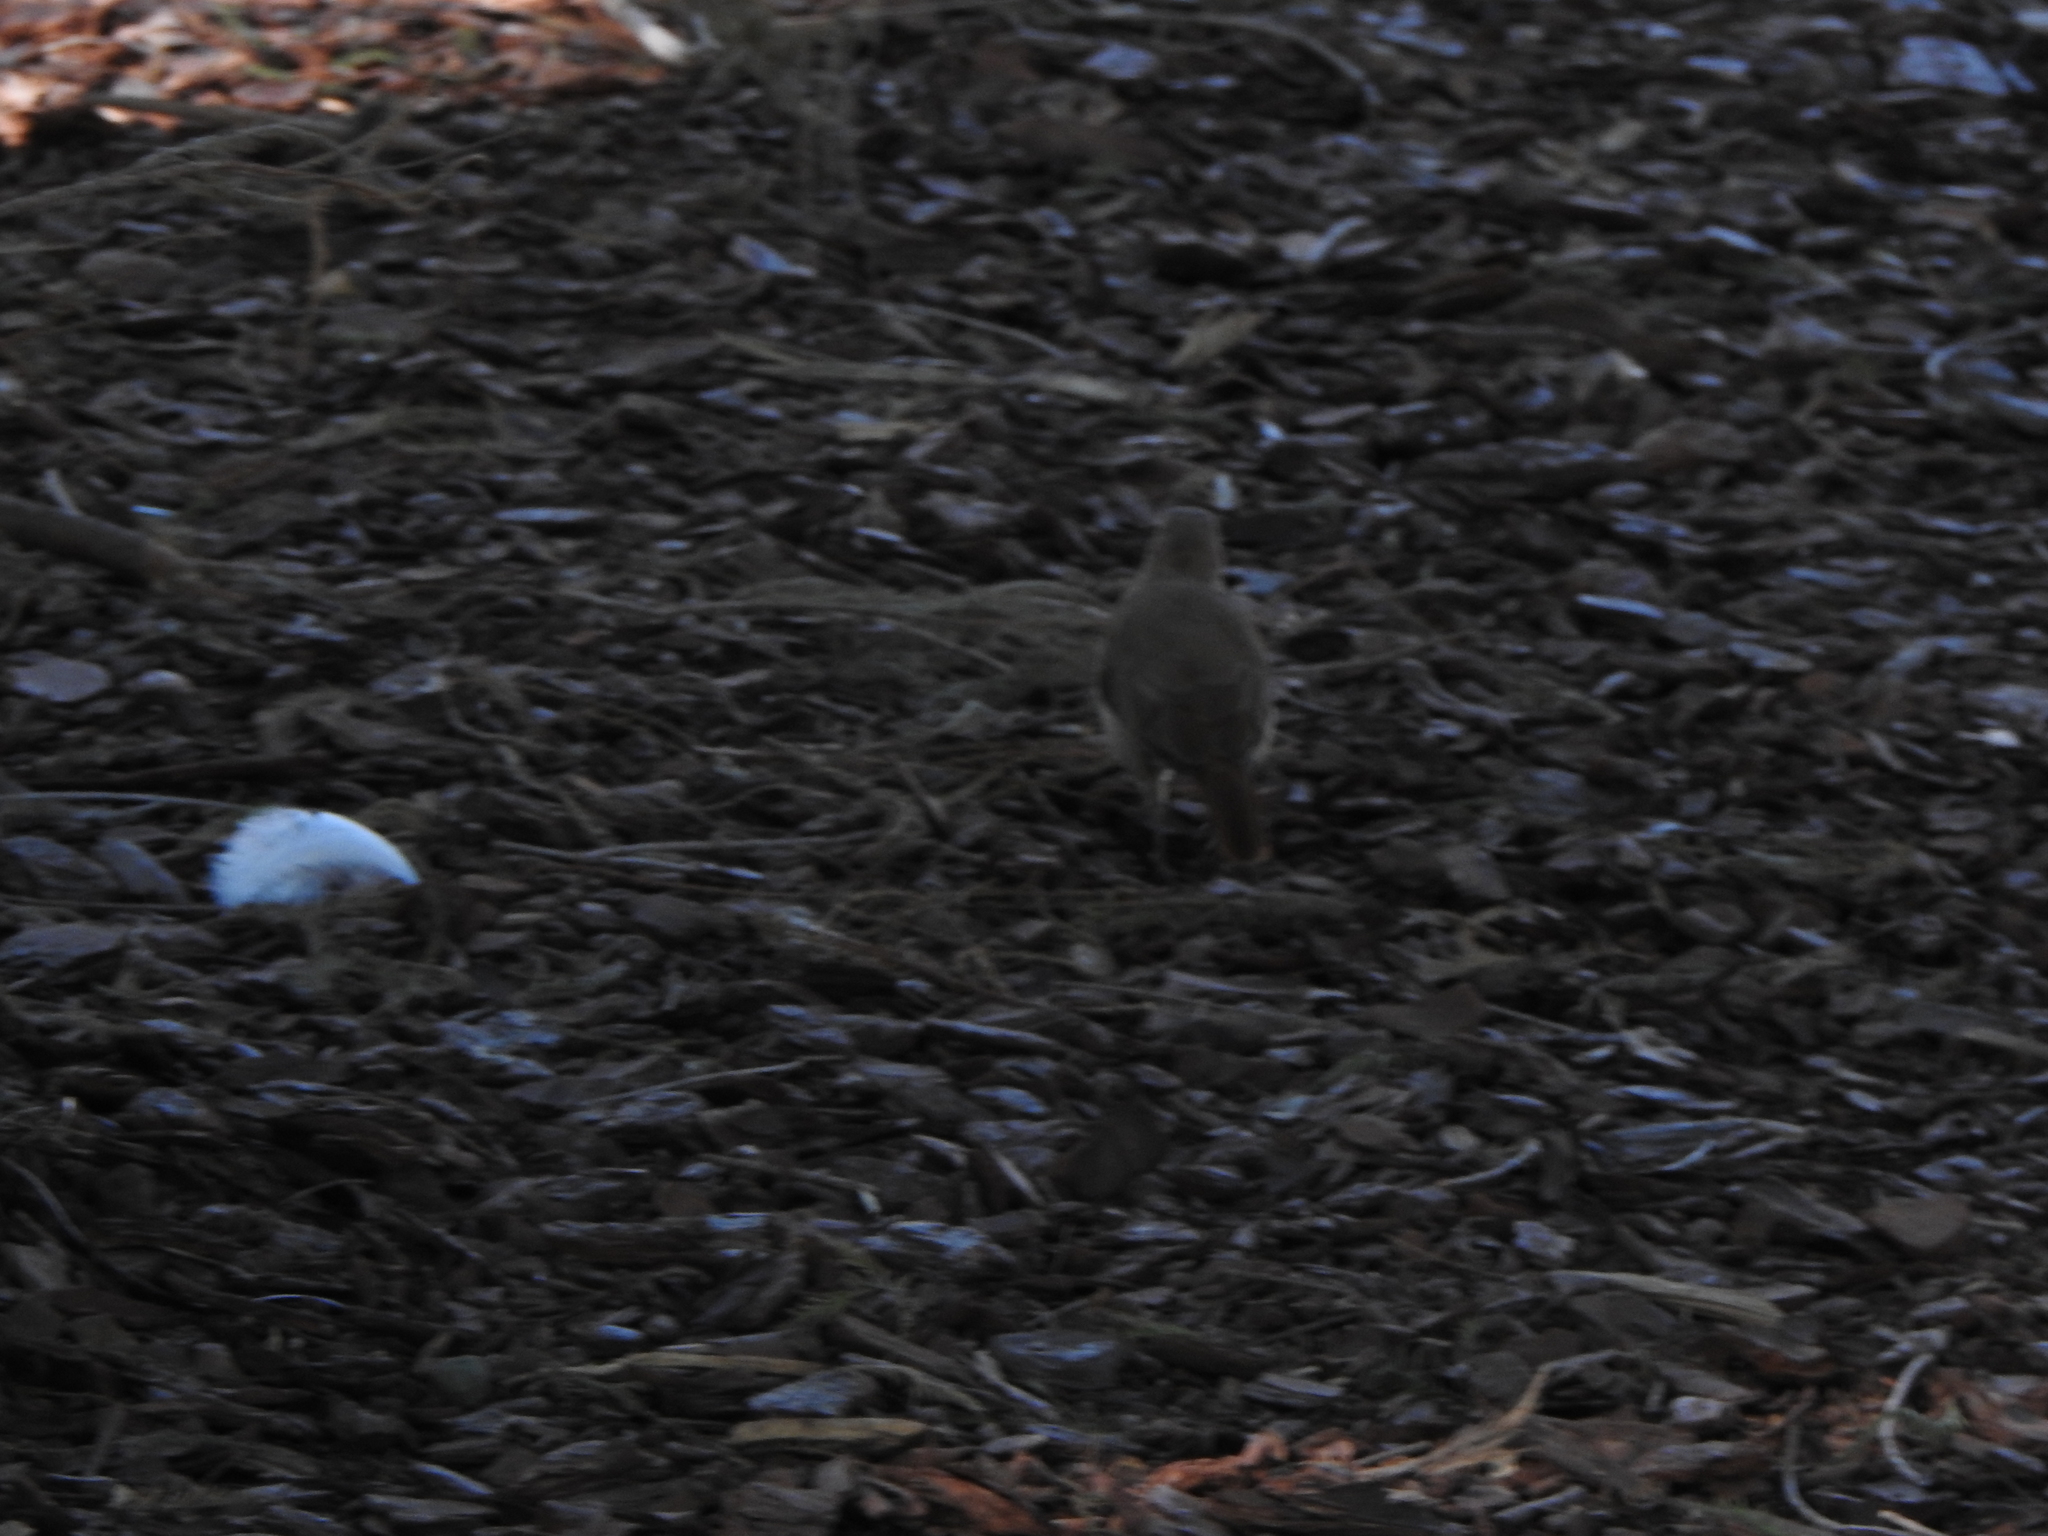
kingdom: Animalia
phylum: Chordata
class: Aves
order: Passeriformes
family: Furnariidae
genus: Furnarius
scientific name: Furnarius rufus
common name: Rufous hornero
